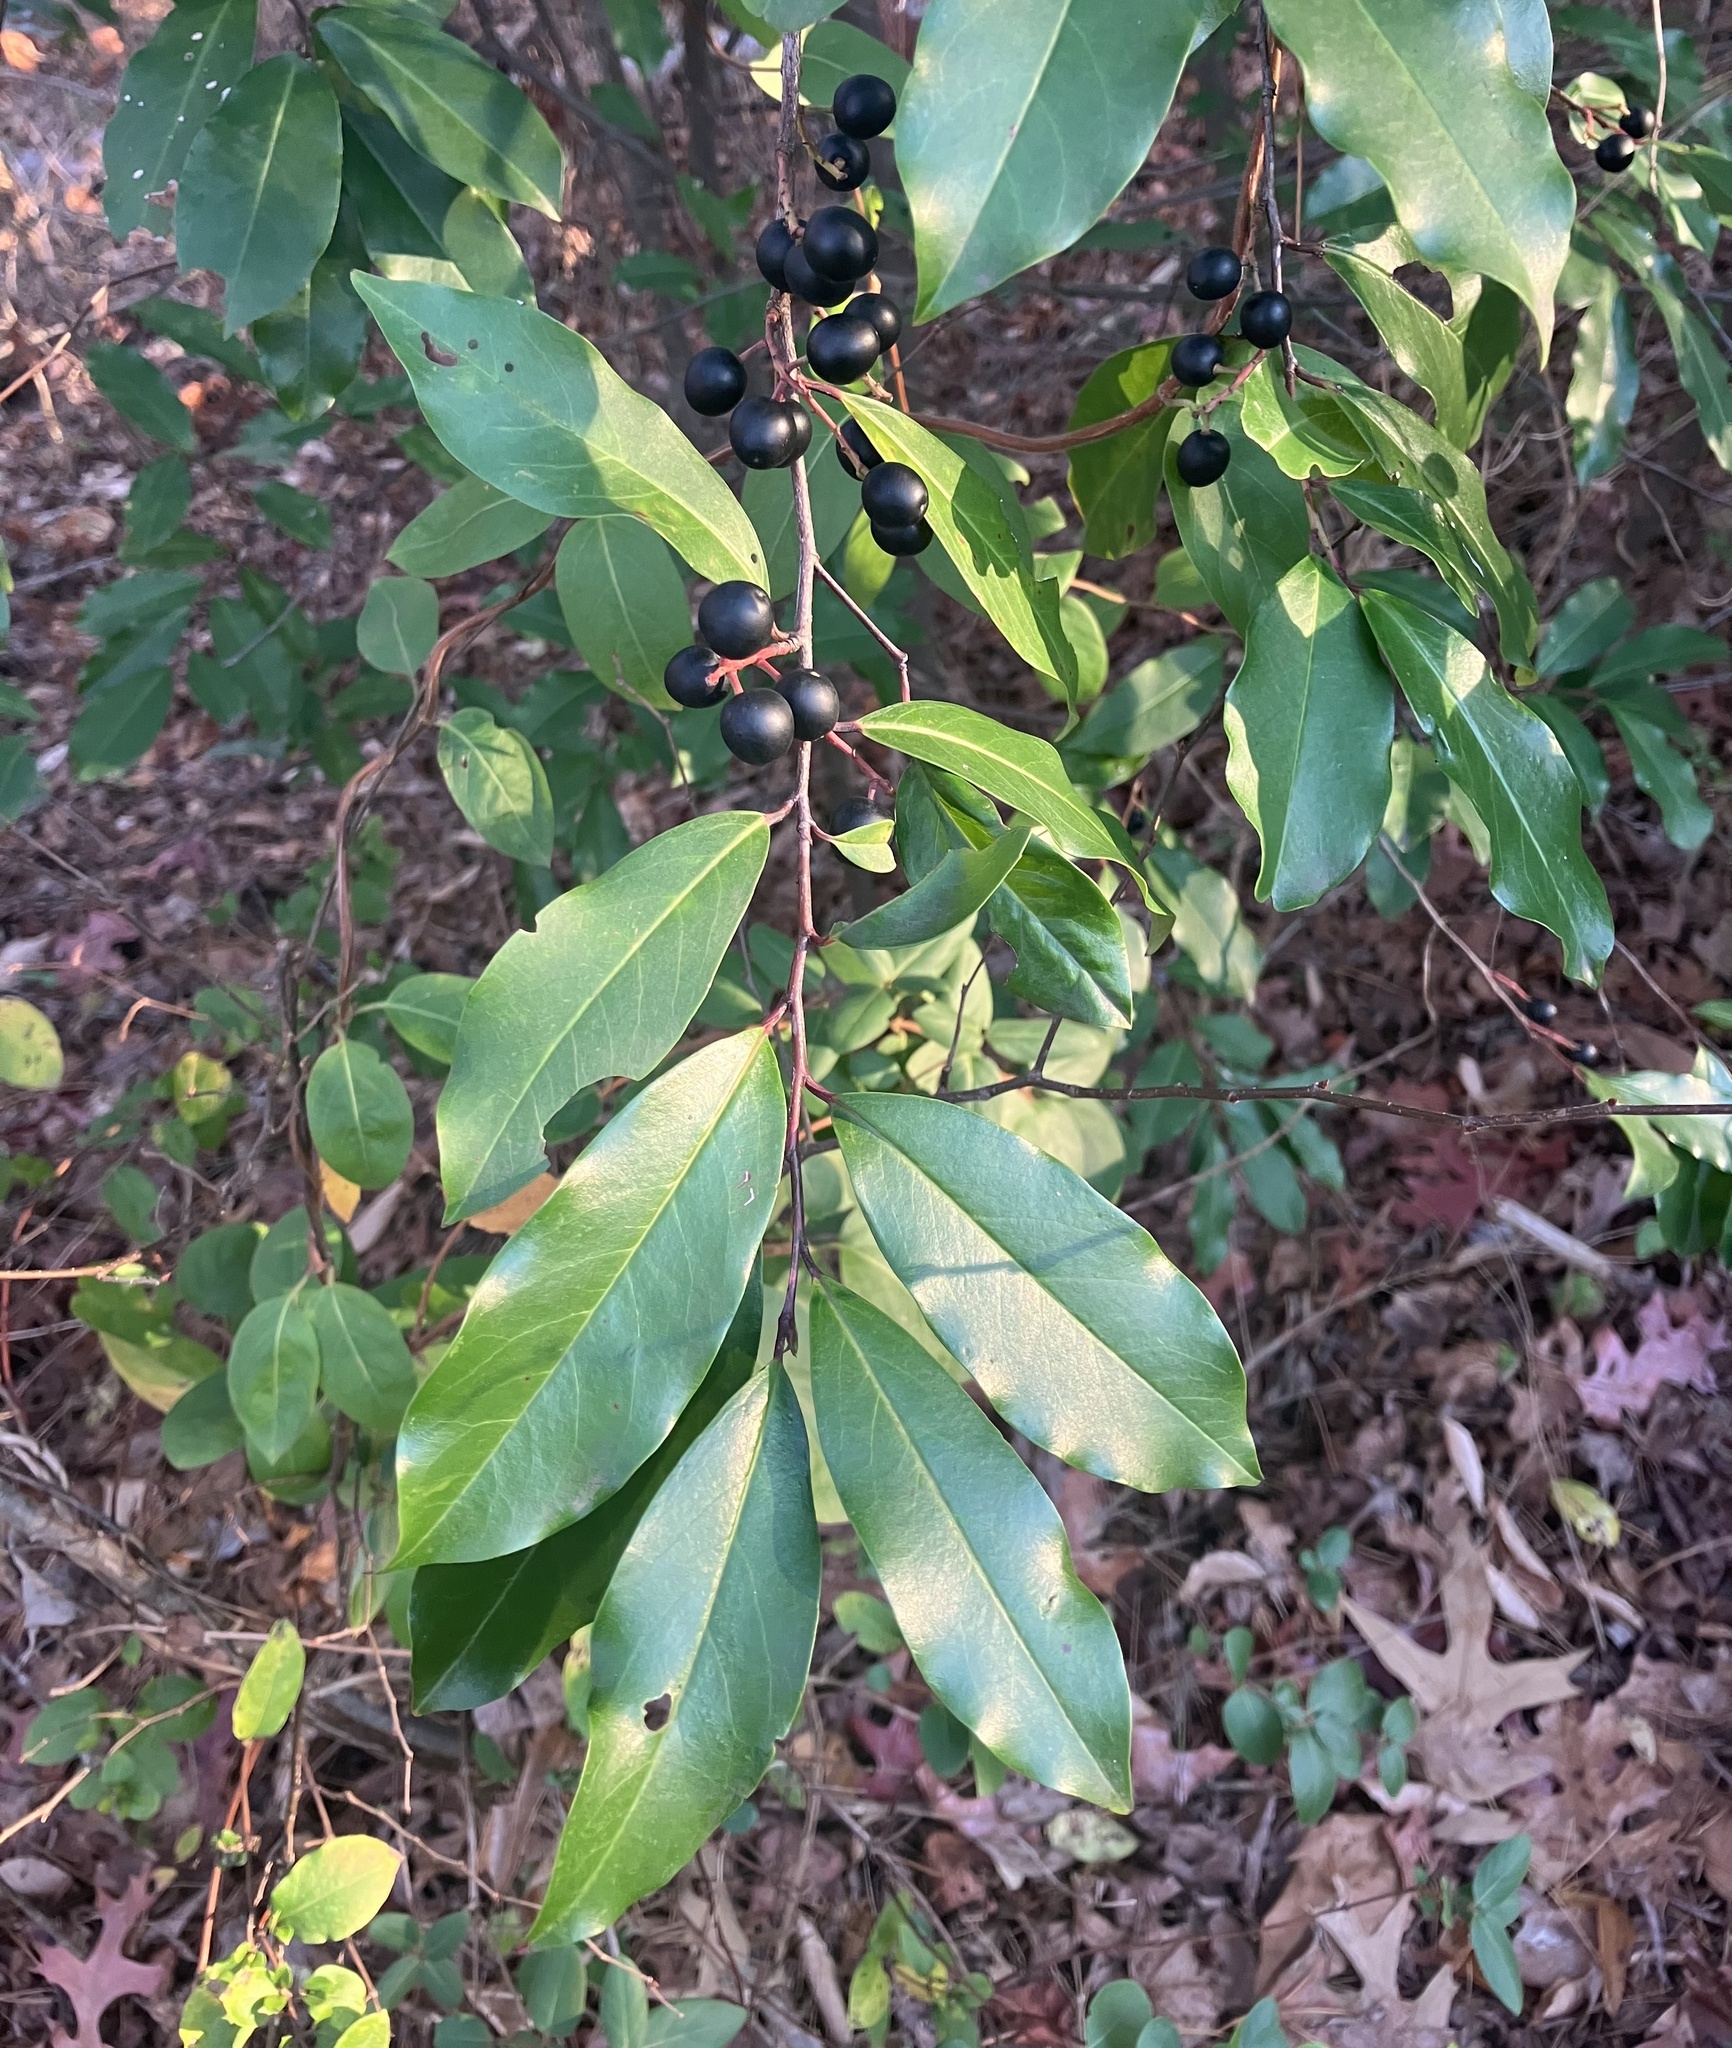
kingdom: Plantae
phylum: Tracheophyta
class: Magnoliopsida
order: Rosales
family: Rosaceae
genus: Prunus
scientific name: Prunus caroliniana
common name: Carolina laurel cherry
